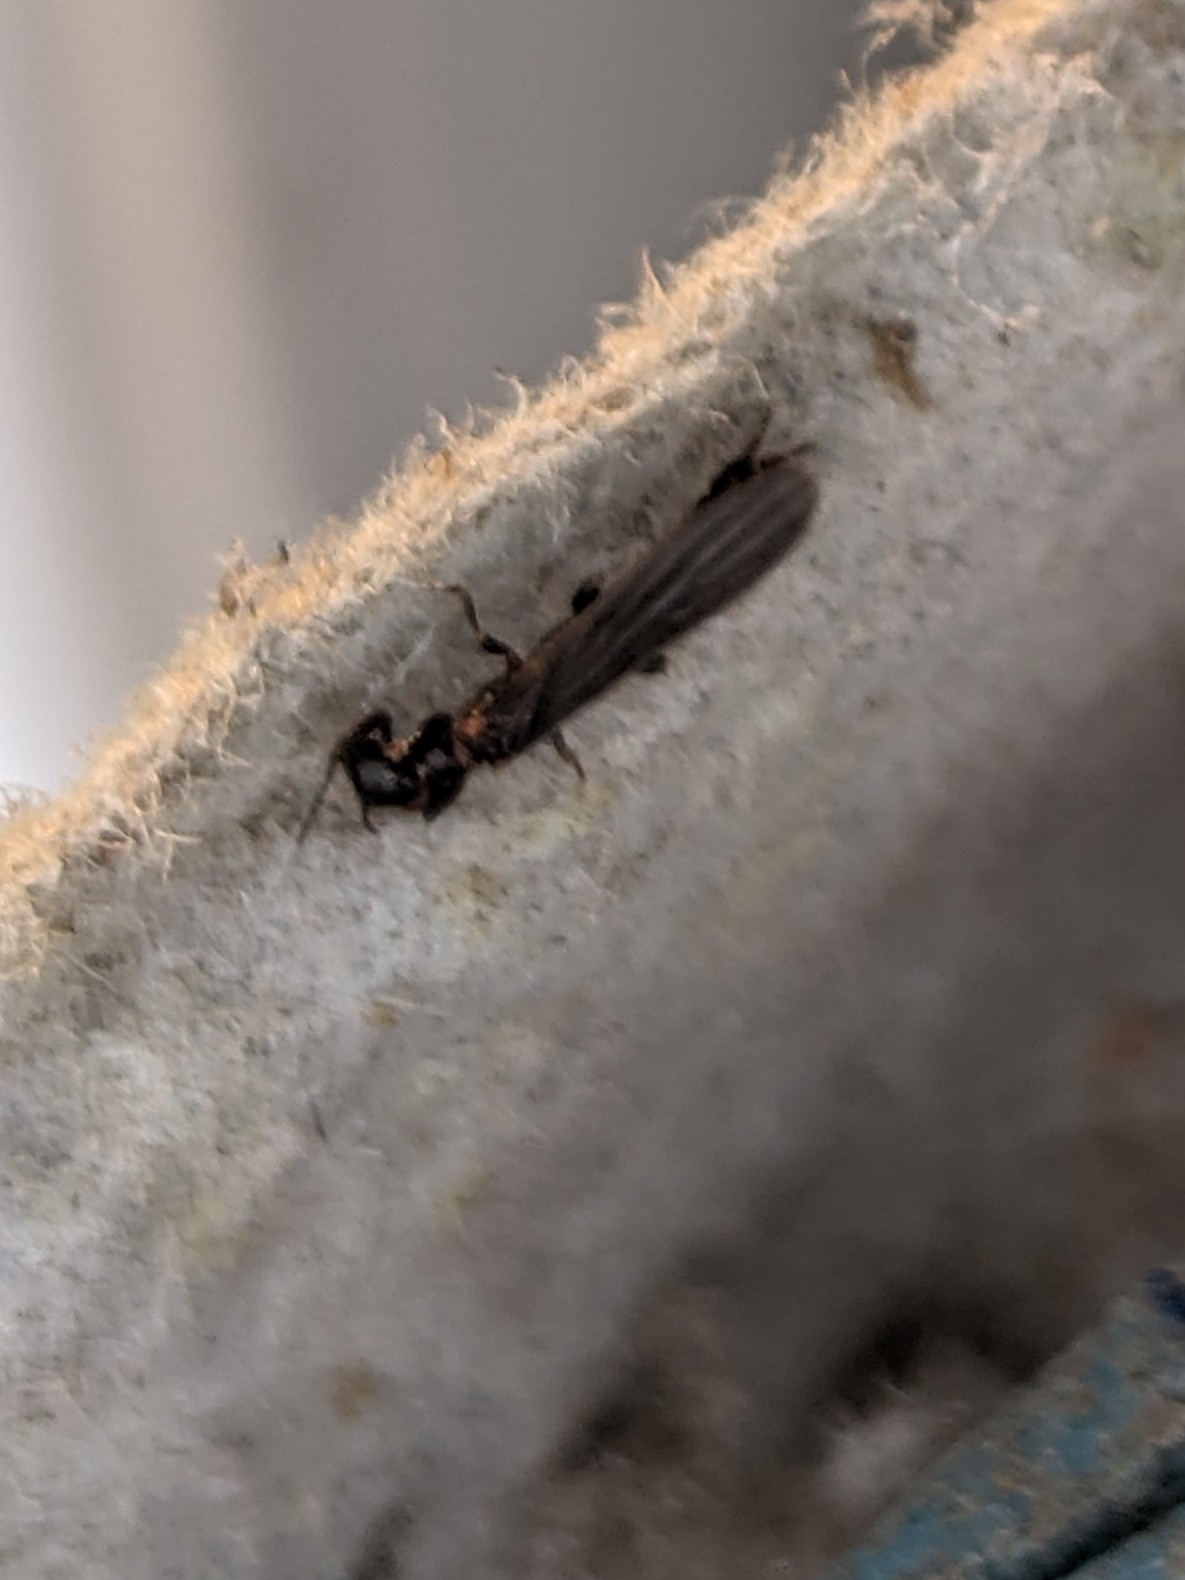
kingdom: Animalia
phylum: Arthropoda
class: Insecta
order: Embioptera
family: Oligotomidae
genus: Oligotoma
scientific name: Oligotoma nigra
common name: Black webspinner
